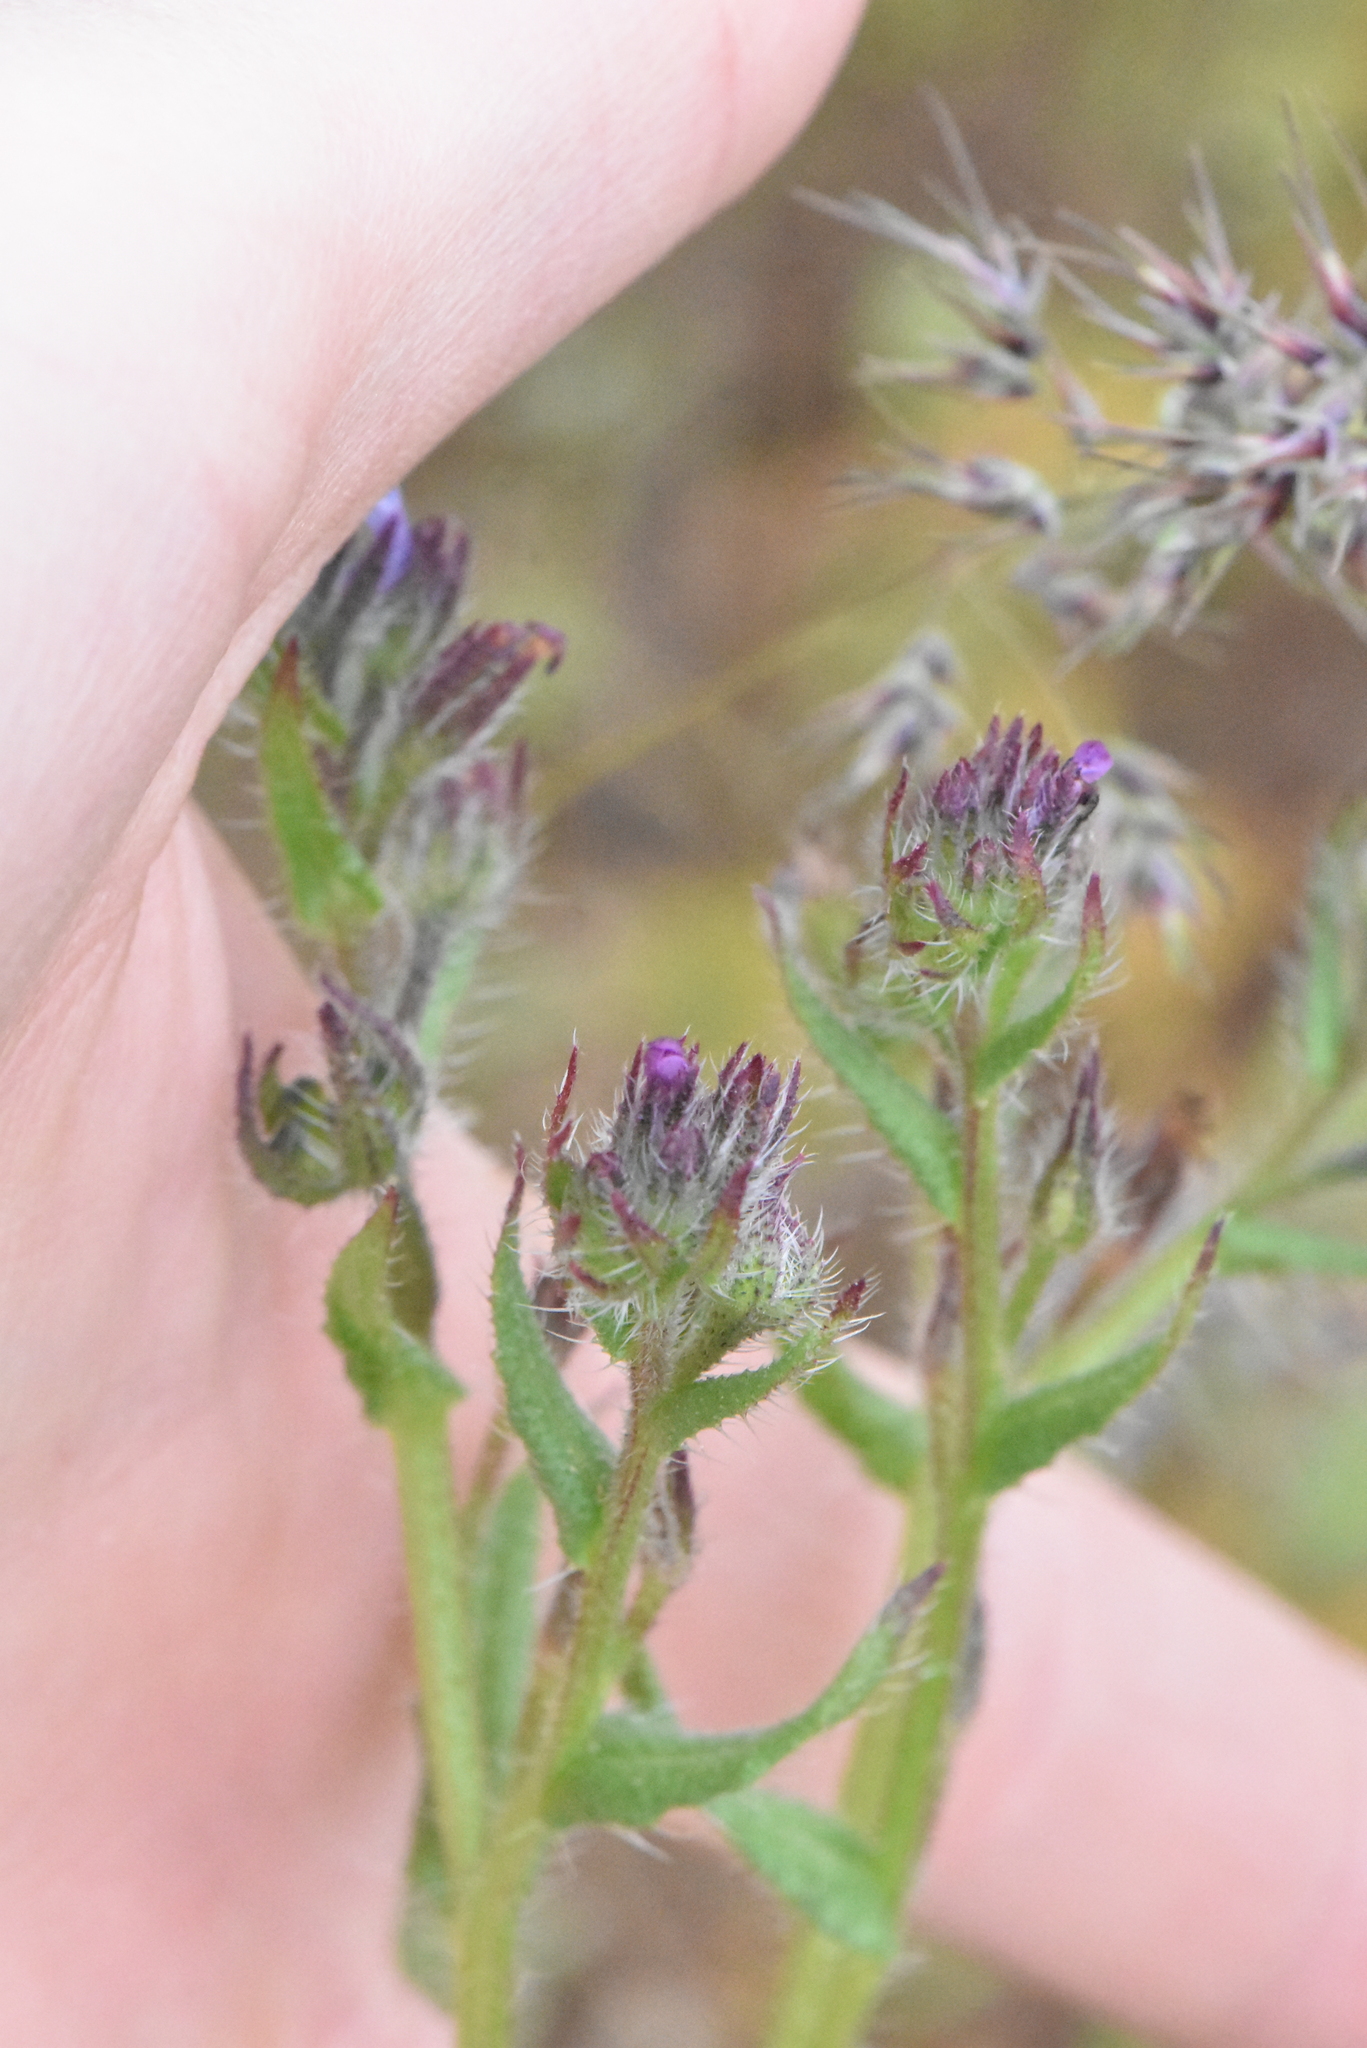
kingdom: Plantae
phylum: Tracheophyta
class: Magnoliopsida
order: Boraginales
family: Boraginaceae
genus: Lycopsis
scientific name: Lycopsis arvensis
